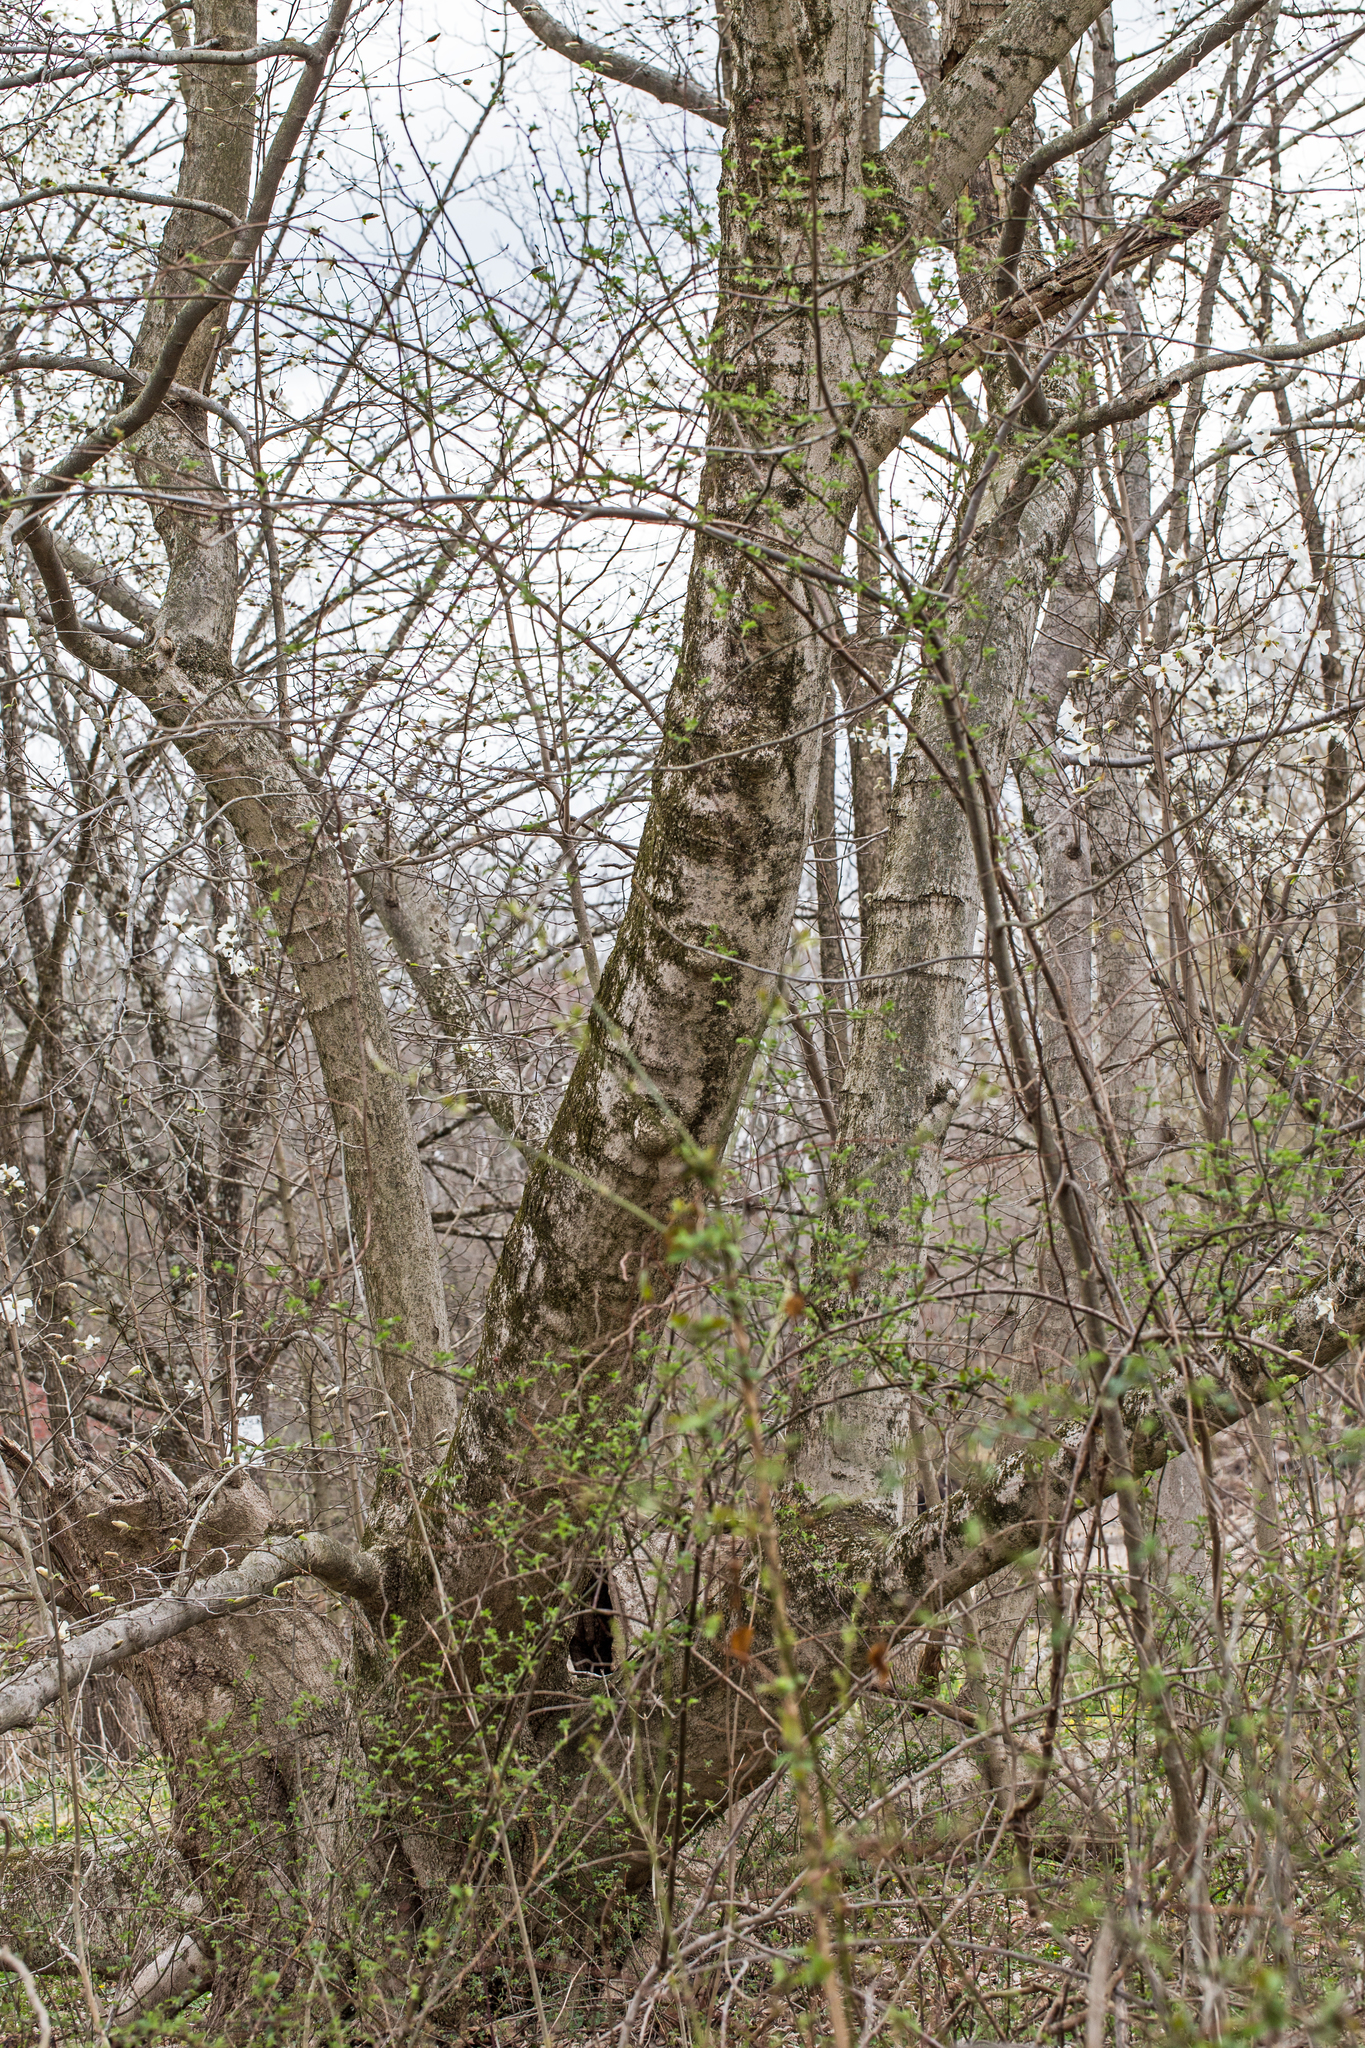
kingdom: Plantae
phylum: Tracheophyta
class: Magnoliopsida
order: Magnoliales
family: Magnoliaceae
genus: Magnolia
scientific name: Magnolia kobus
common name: Kobus magnolia
